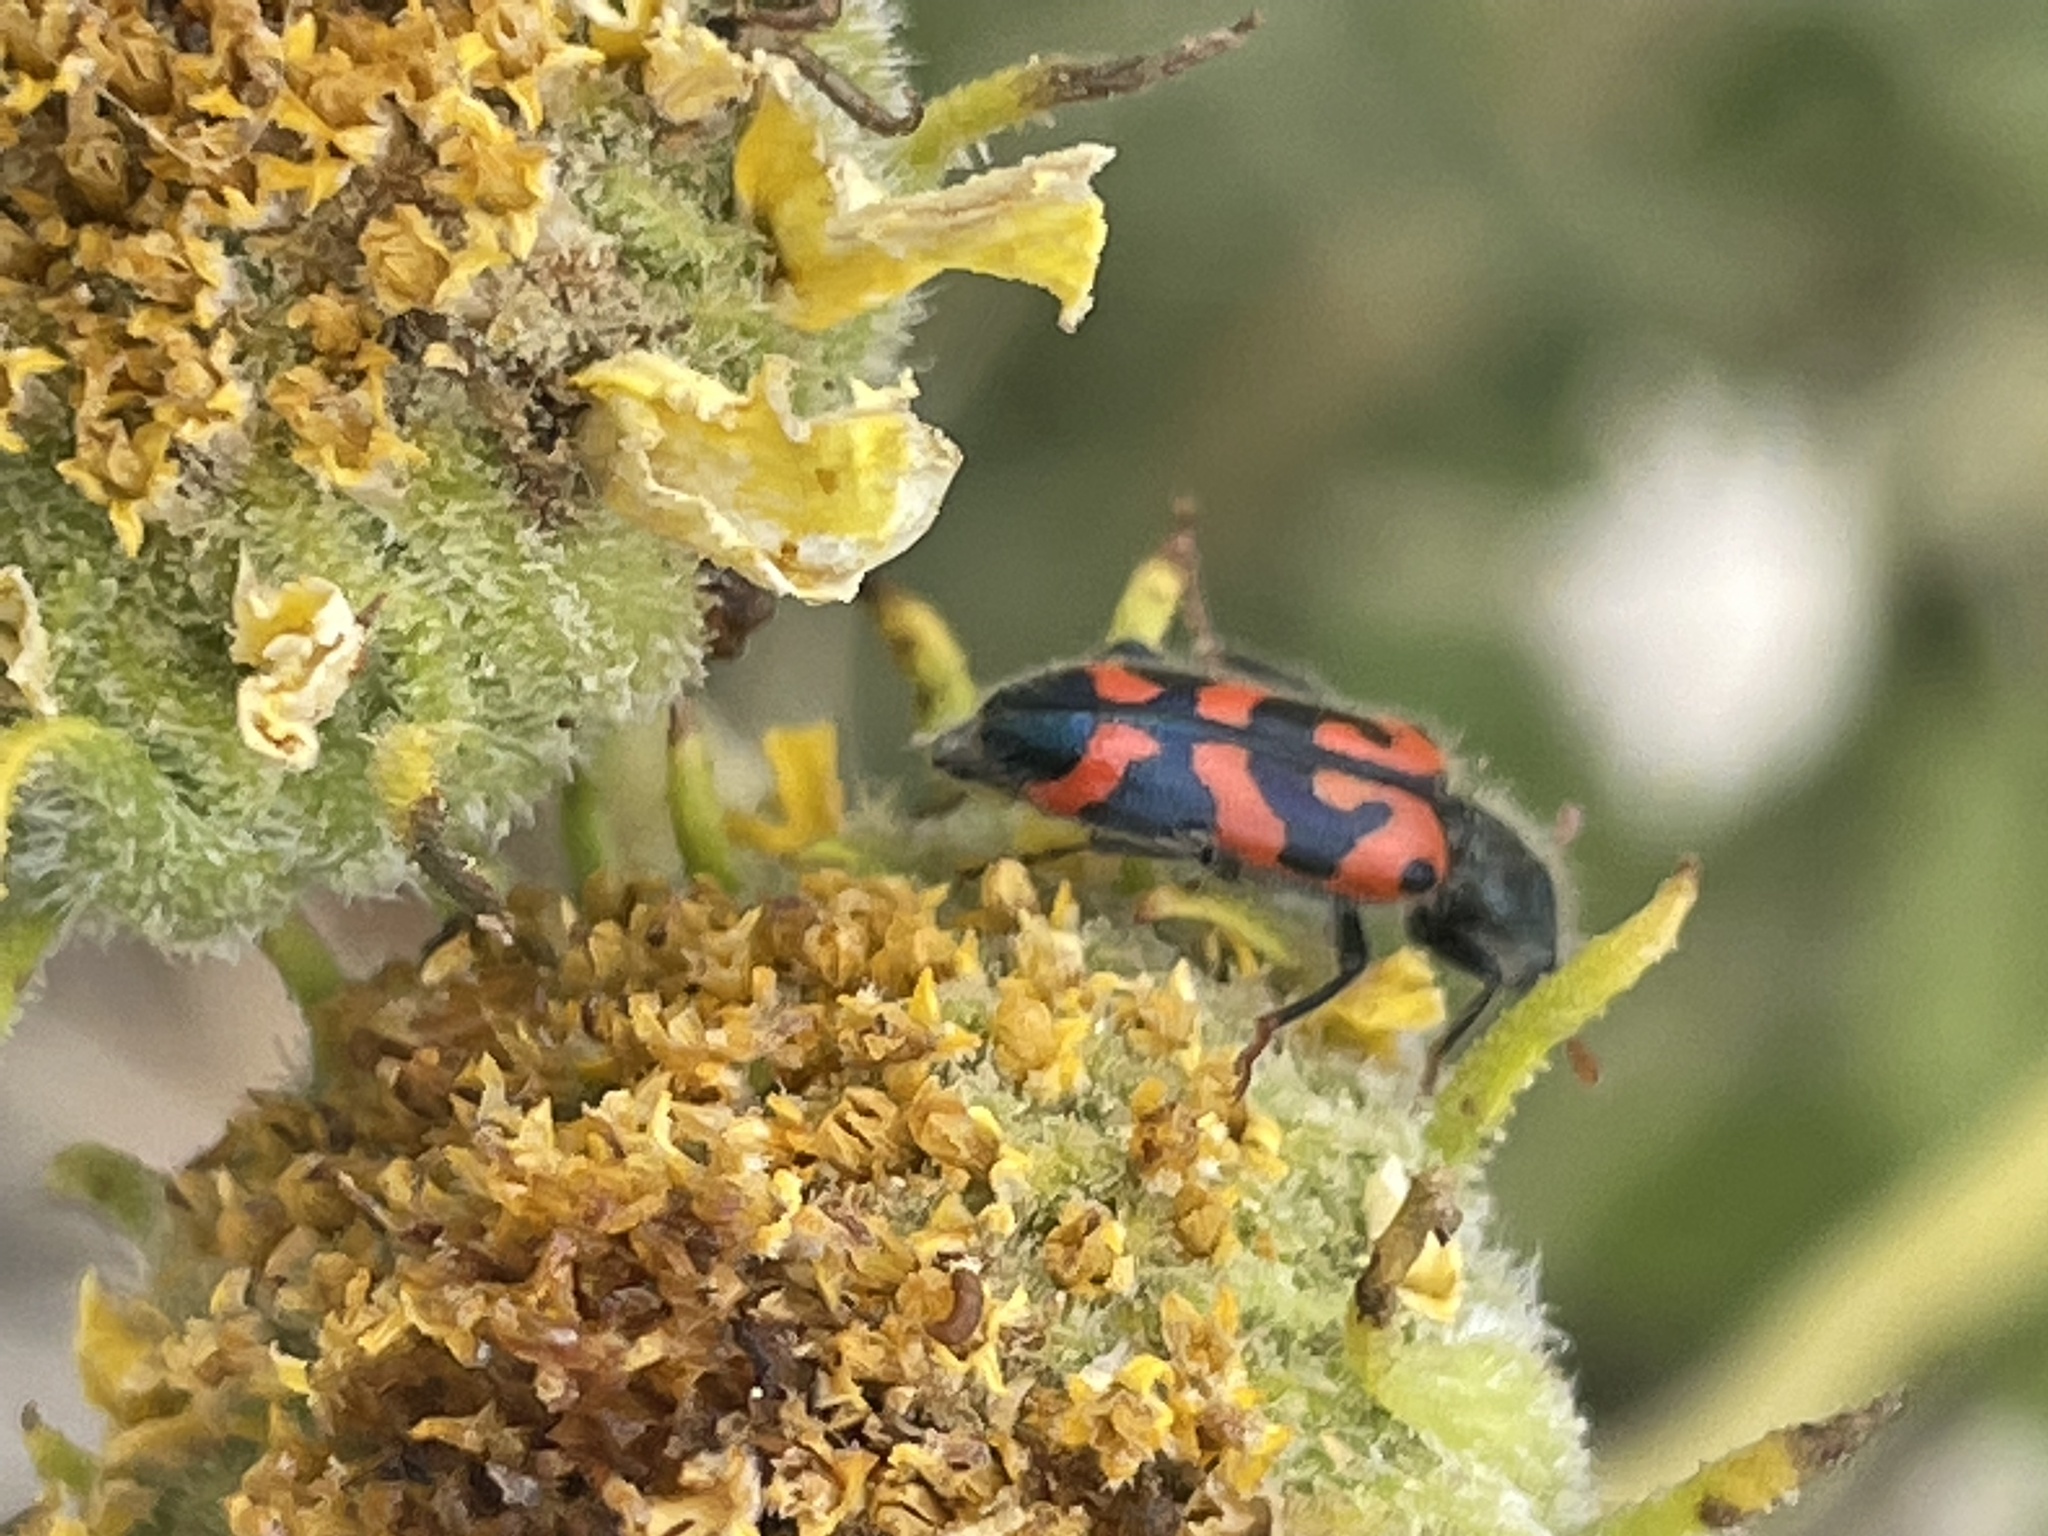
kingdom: Animalia
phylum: Arthropoda
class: Insecta
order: Coleoptera
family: Cleridae
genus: Trichodes
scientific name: Trichodes ornatus
